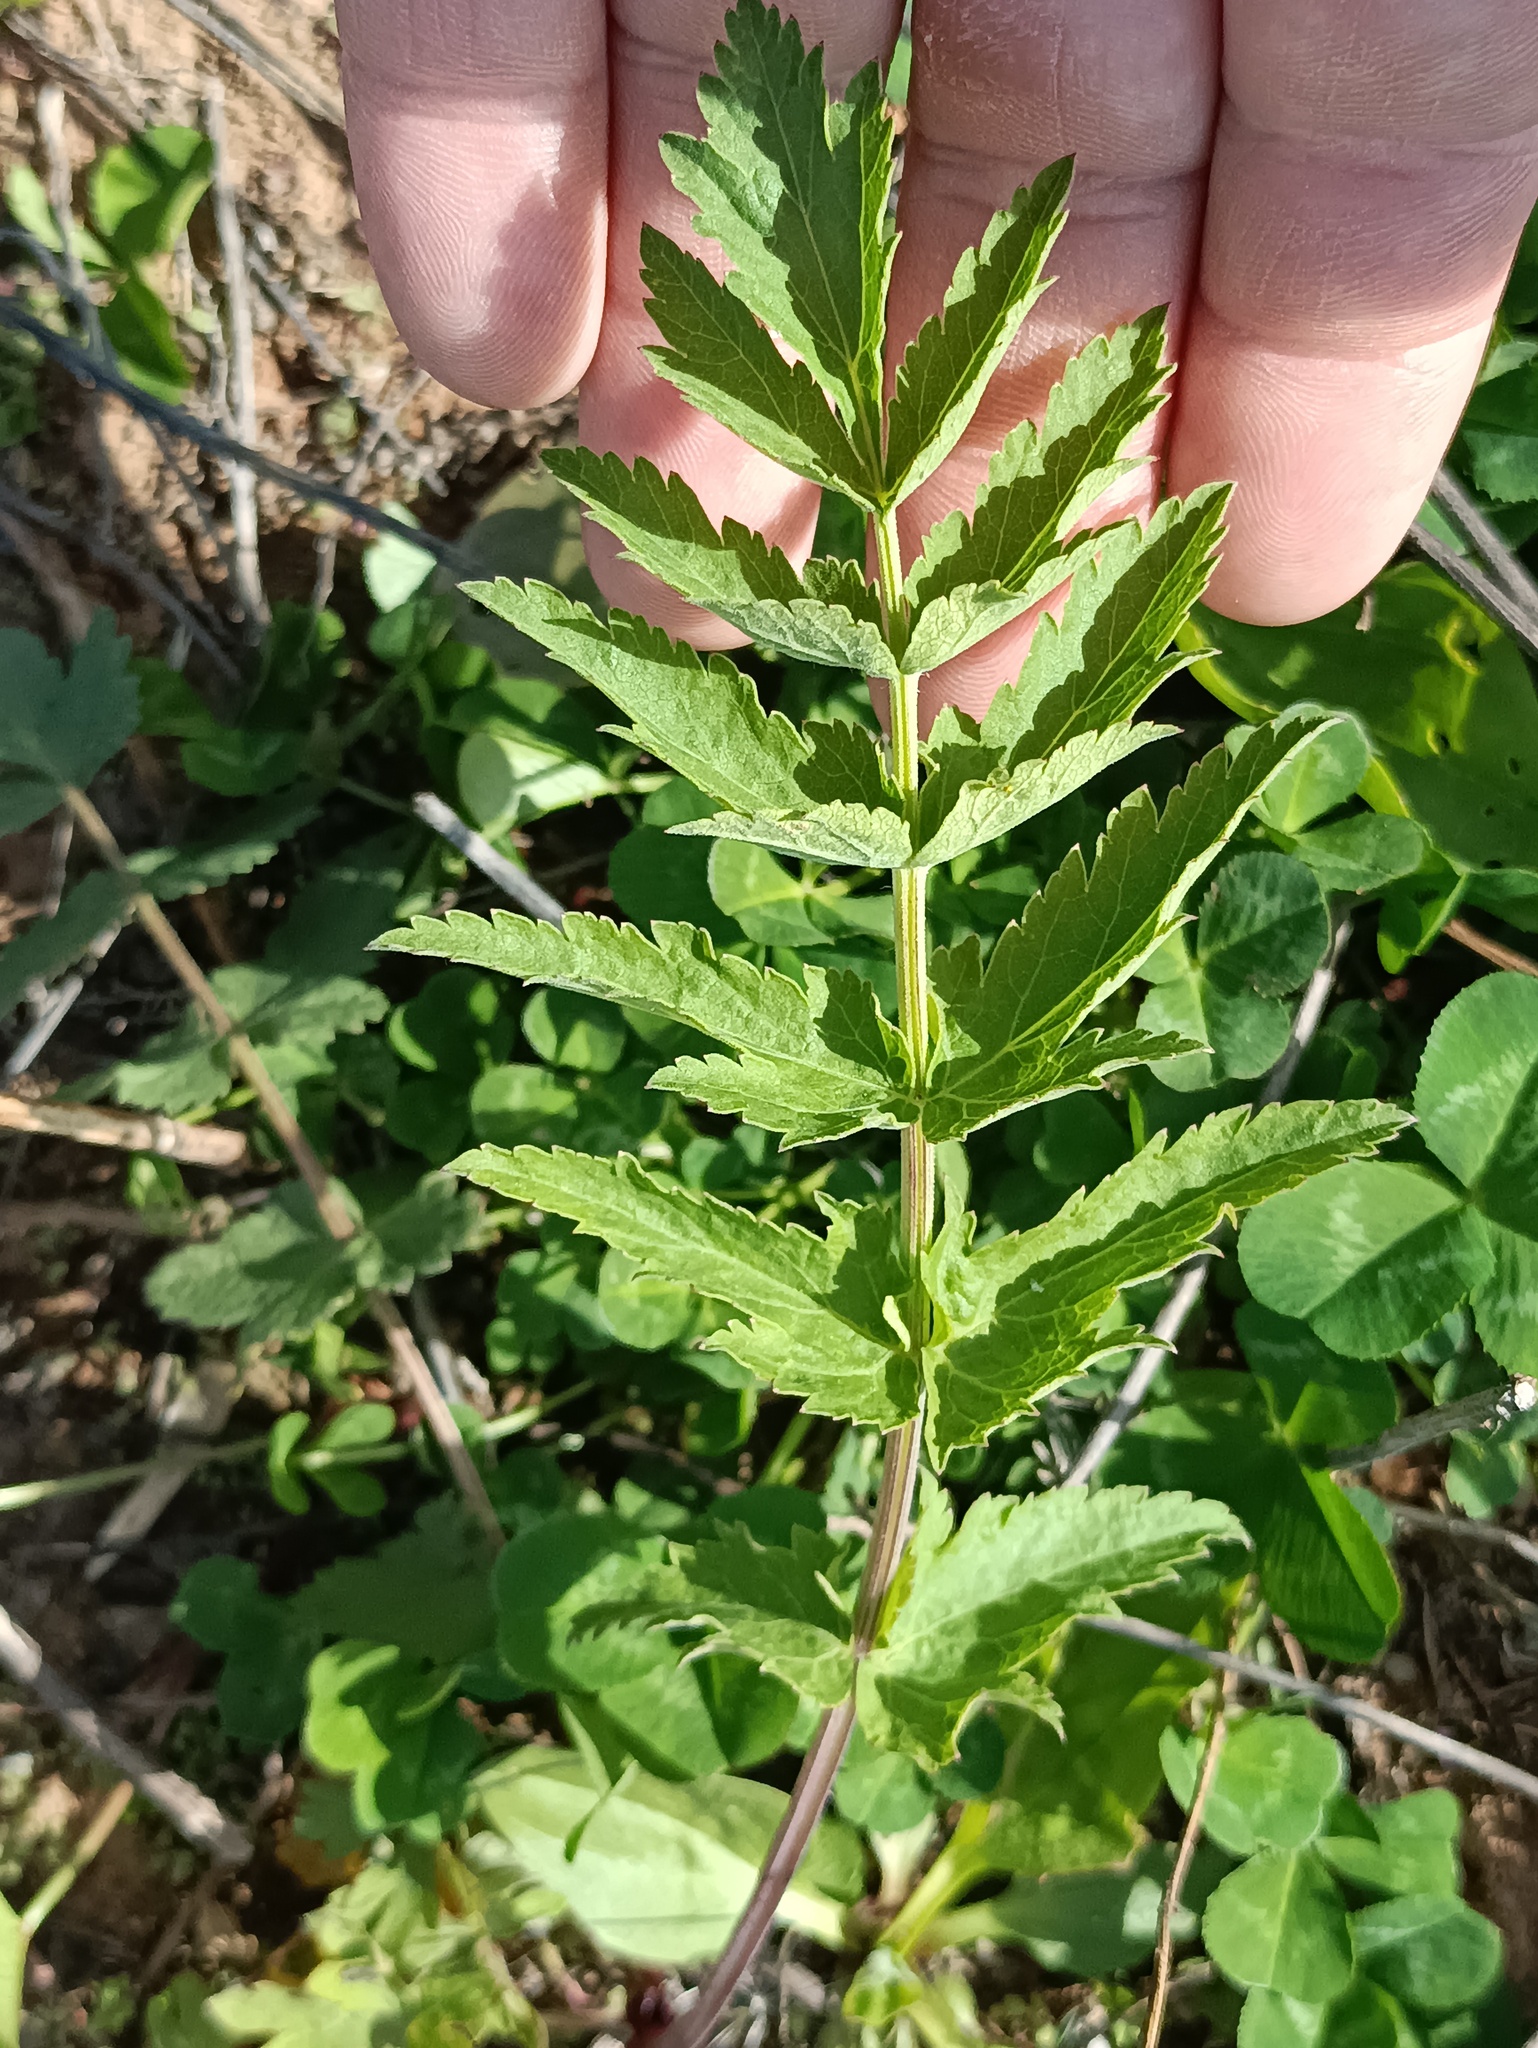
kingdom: Plantae
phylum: Tracheophyta
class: Magnoliopsida
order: Apiales
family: Apiaceae
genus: Pastinaca
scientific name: Pastinaca sativa
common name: Wild parsnip
